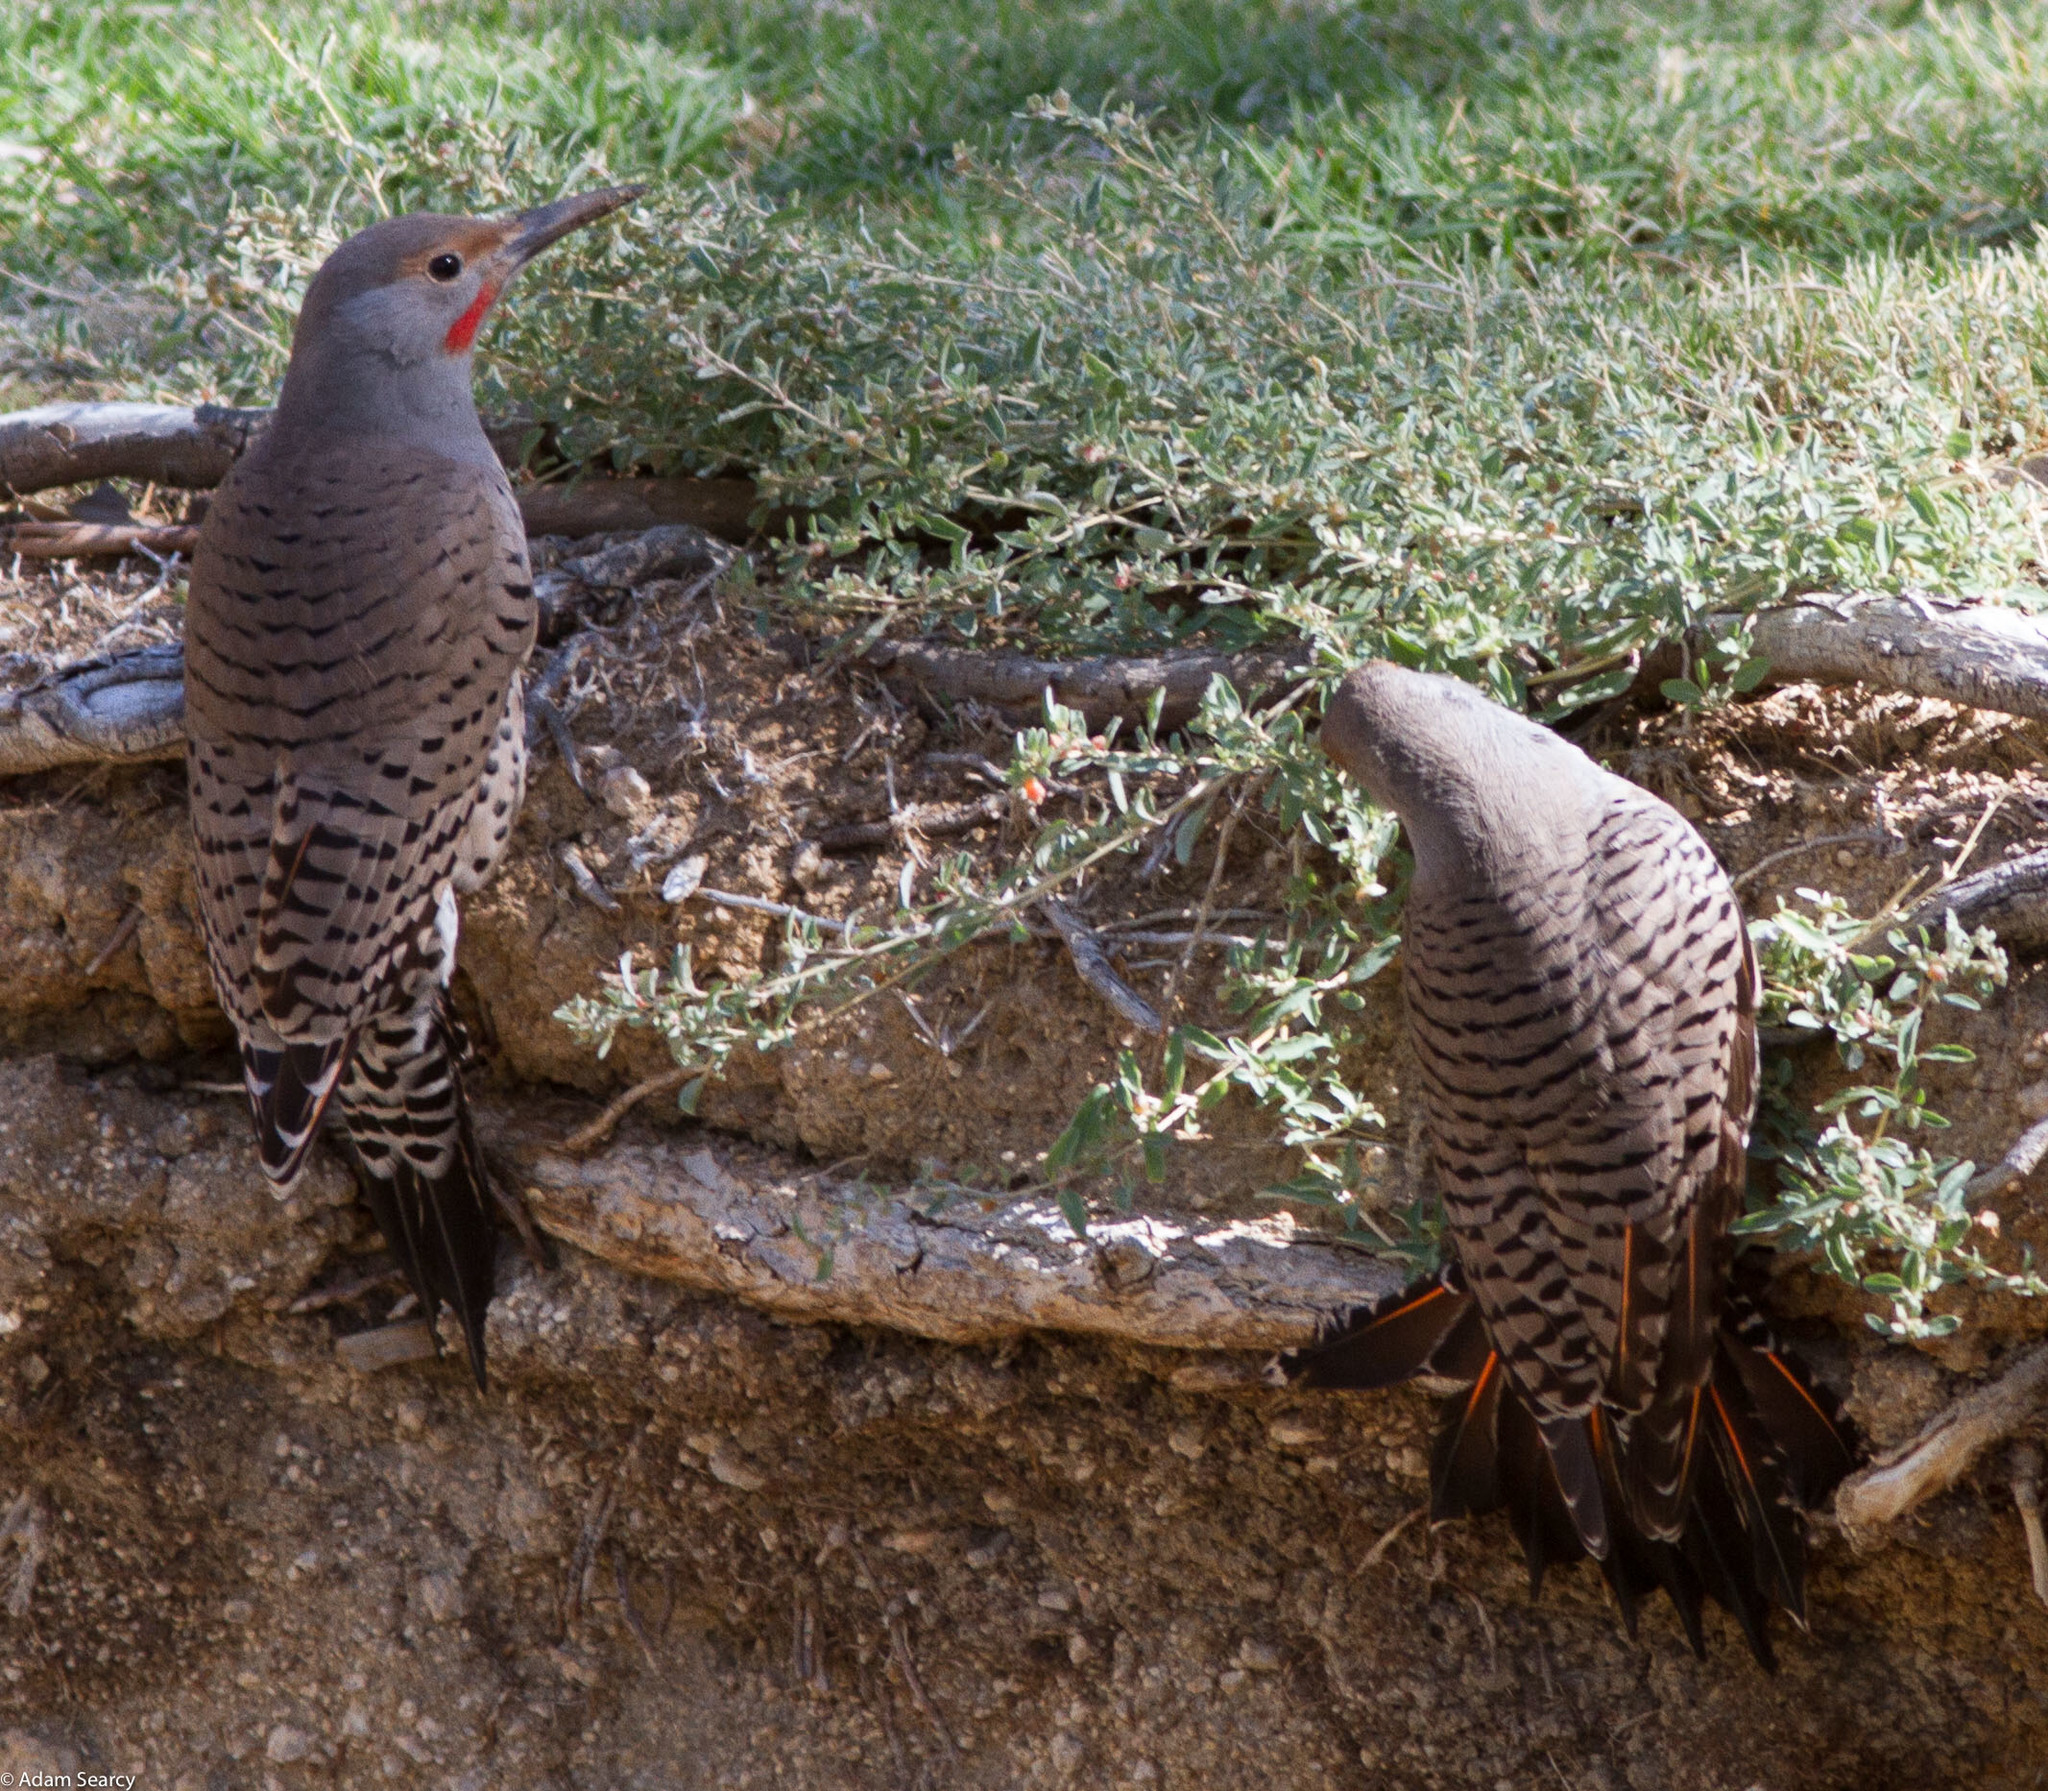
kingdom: Animalia
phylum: Chordata
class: Aves
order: Piciformes
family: Picidae
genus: Colaptes
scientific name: Colaptes auratus
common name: Northern flicker
